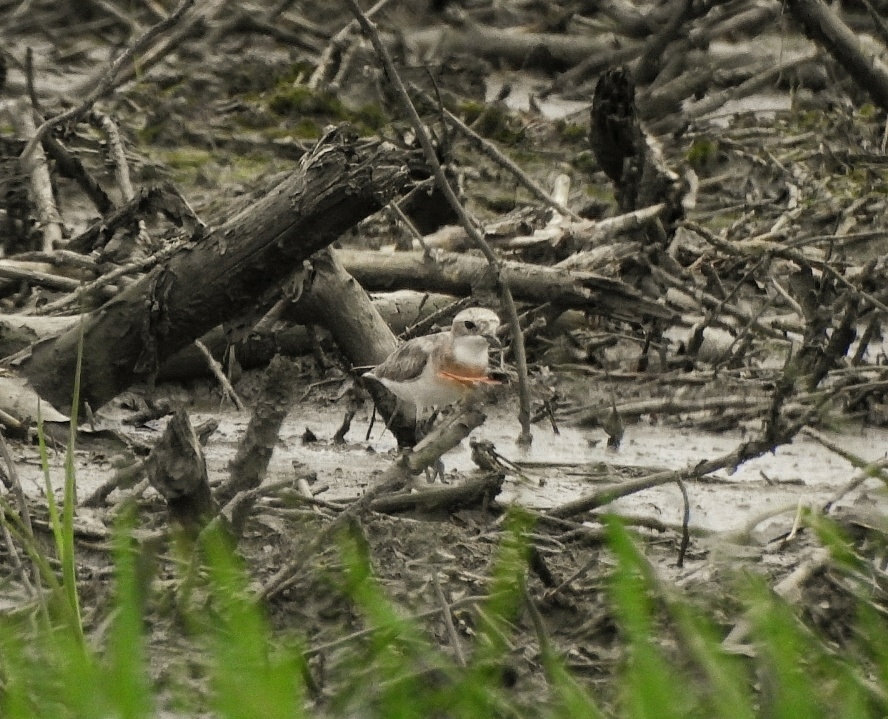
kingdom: Animalia
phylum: Chordata
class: Aves
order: Charadriiformes
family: Charadriidae
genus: Anarhynchus
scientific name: Anarhynchus
